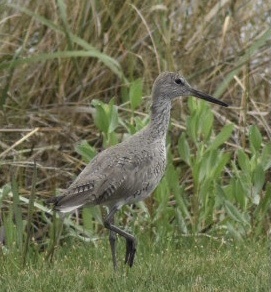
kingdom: Animalia
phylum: Chordata
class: Aves
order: Charadriiformes
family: Scolopacidae
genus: Tringa
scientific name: Tringa semipalmata
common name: Willet
